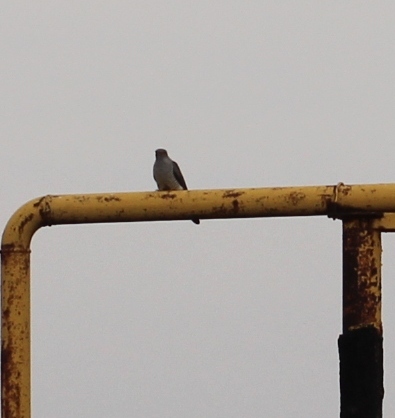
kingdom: Animalia
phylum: Chordata
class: Aves
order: Cuculiformes
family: Cuculidae
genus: Cuculus
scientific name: Cuculus canorus
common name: Common cuckoo
